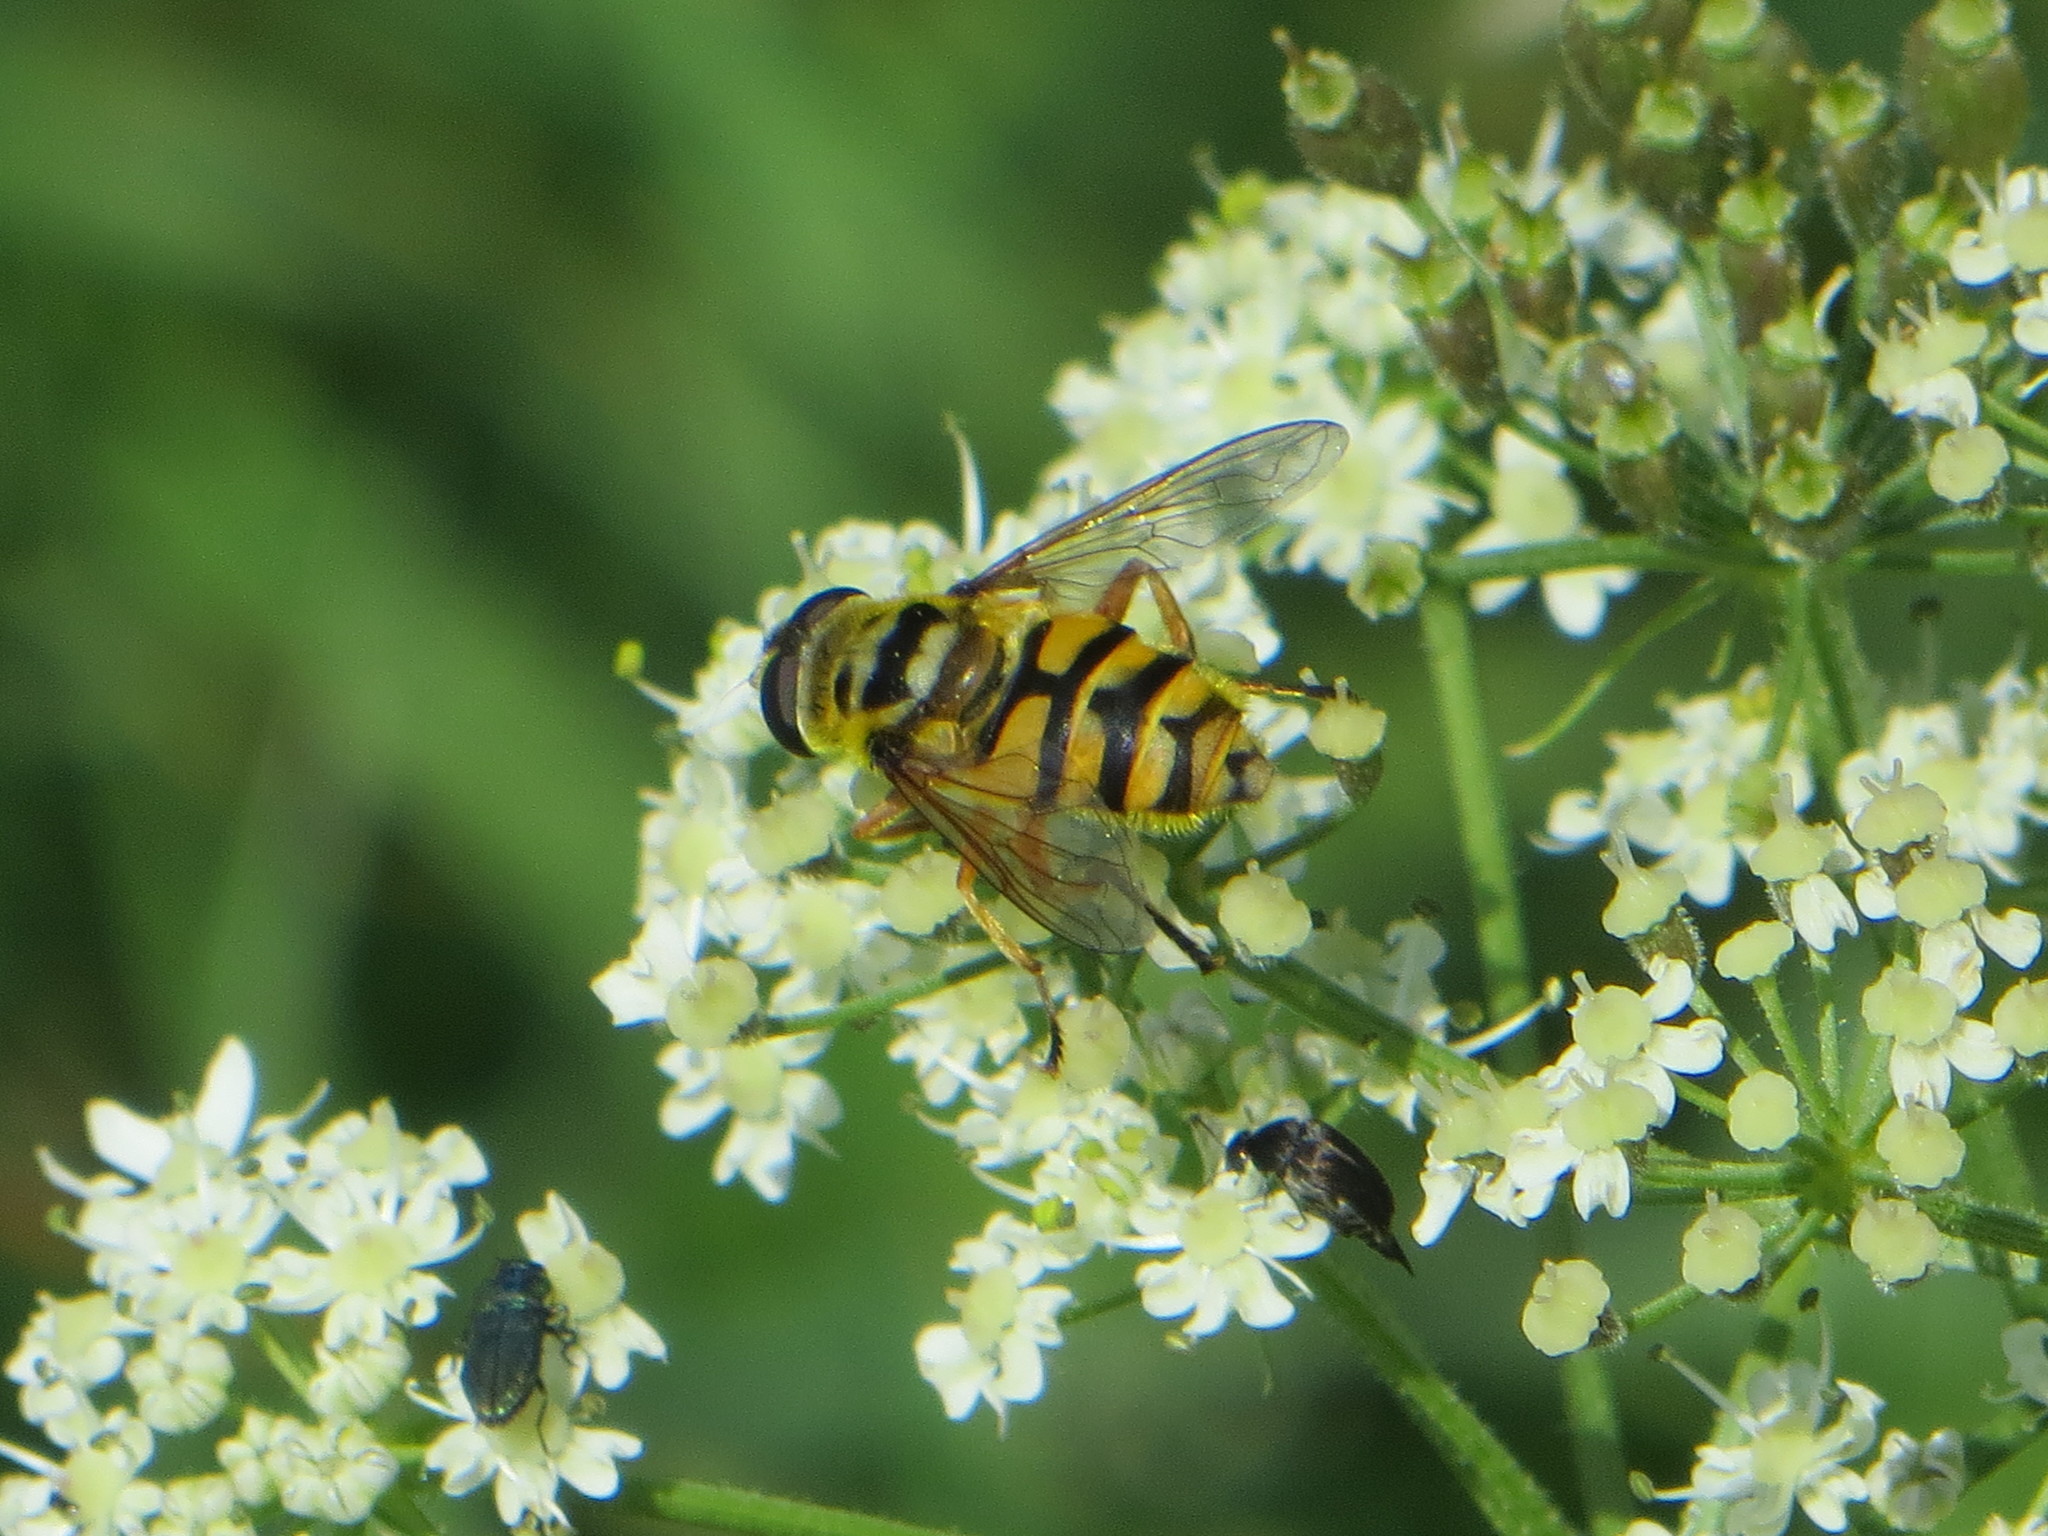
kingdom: Animalia
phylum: Arthropoda
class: Insecta
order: Diptera
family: Syrphidae
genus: Myathropa
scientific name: Myathropa florea
